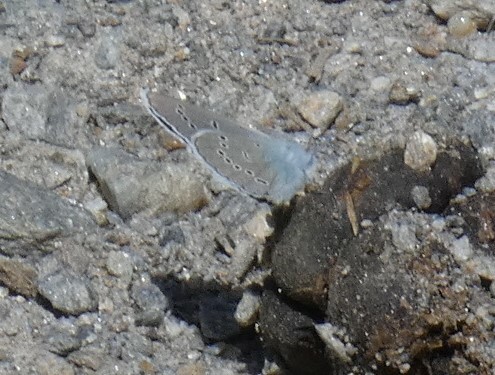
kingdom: Animalia
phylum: Arthropoda
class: Insecta
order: Lepidoptera
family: Lycaenidae
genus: Cyaniris
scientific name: Cyaniris semiargus
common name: Mazarine blue
